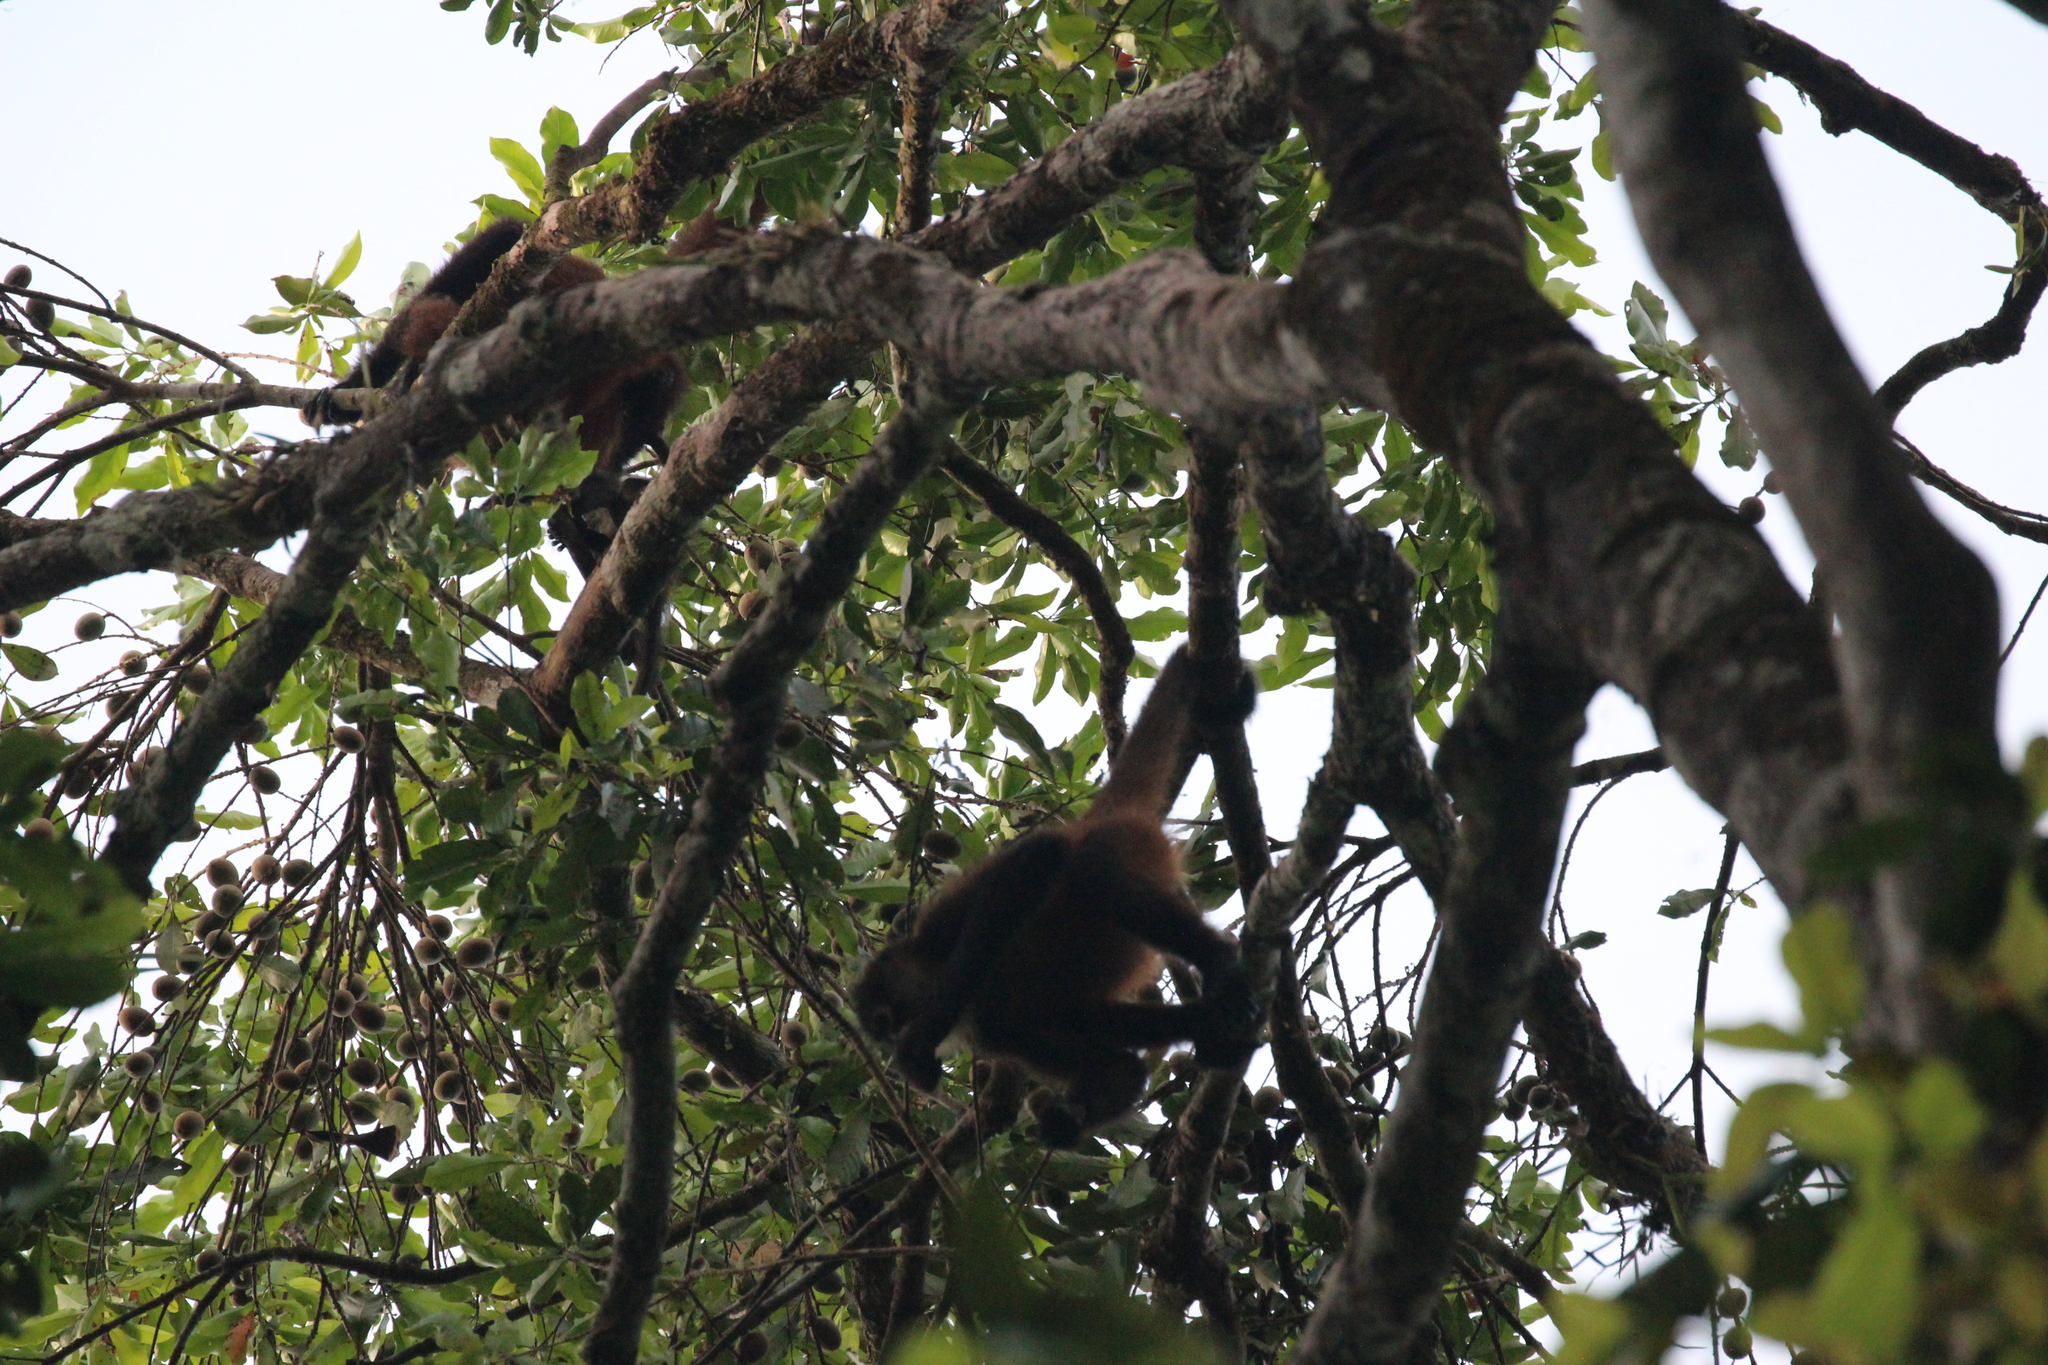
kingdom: Animalia
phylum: Chordata
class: Mammalia
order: Primates
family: Atelidae
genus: Ateles
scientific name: Ateles geoffroyi
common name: Black-handed spider monkey
